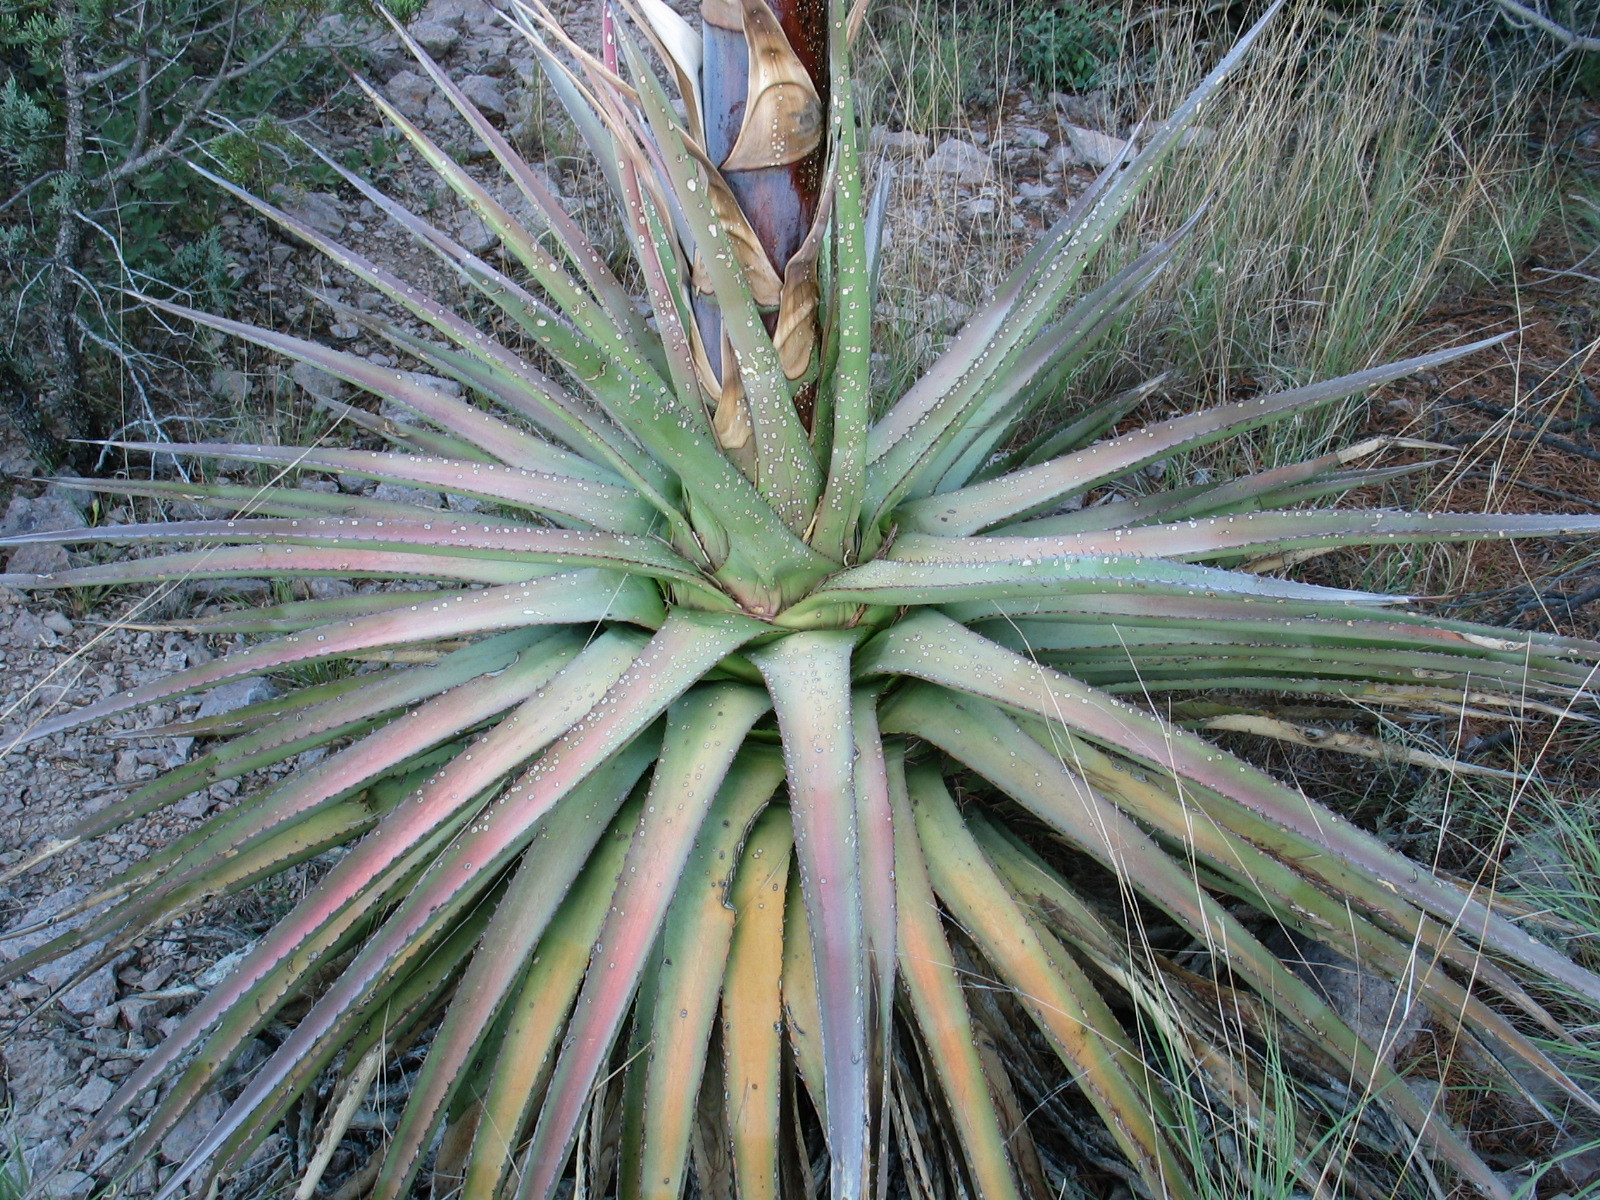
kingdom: Plantae
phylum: Tracheophyta
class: Liliopsida
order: Asparagales
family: Asparagaceae
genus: Agave
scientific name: Agave palmeri
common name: Palmer agave
